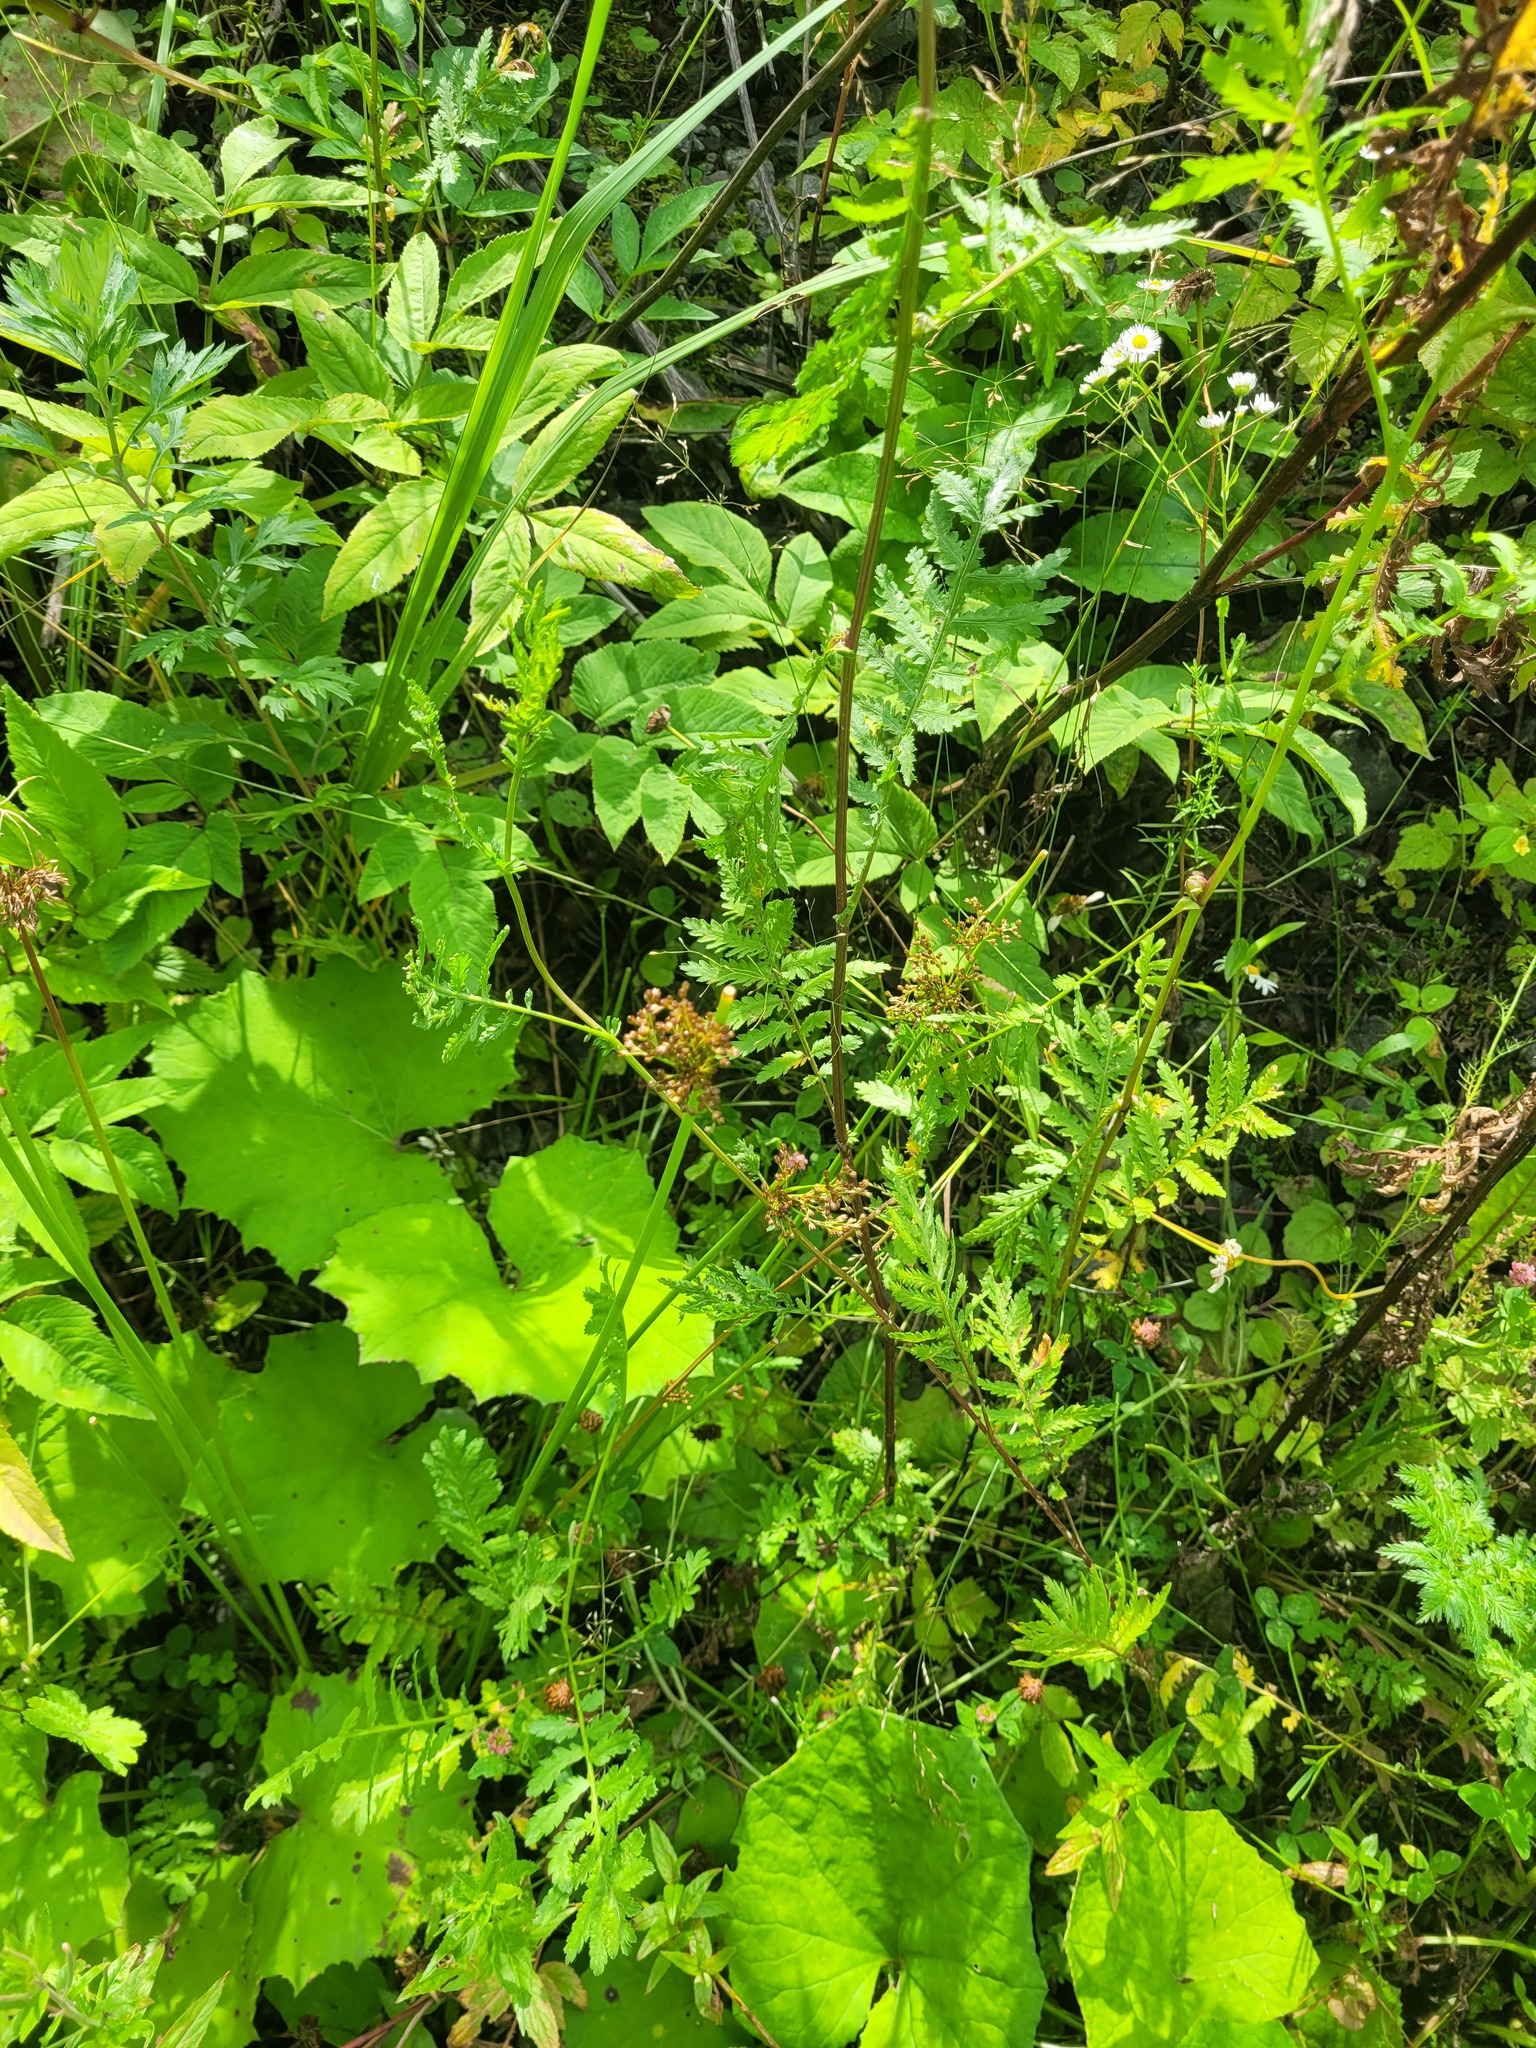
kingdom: Plantae
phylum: Tracheophyta
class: Liliopsida
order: Poales
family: Juncaceae
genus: Juncus
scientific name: Juncus effusus
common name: Soft rush
